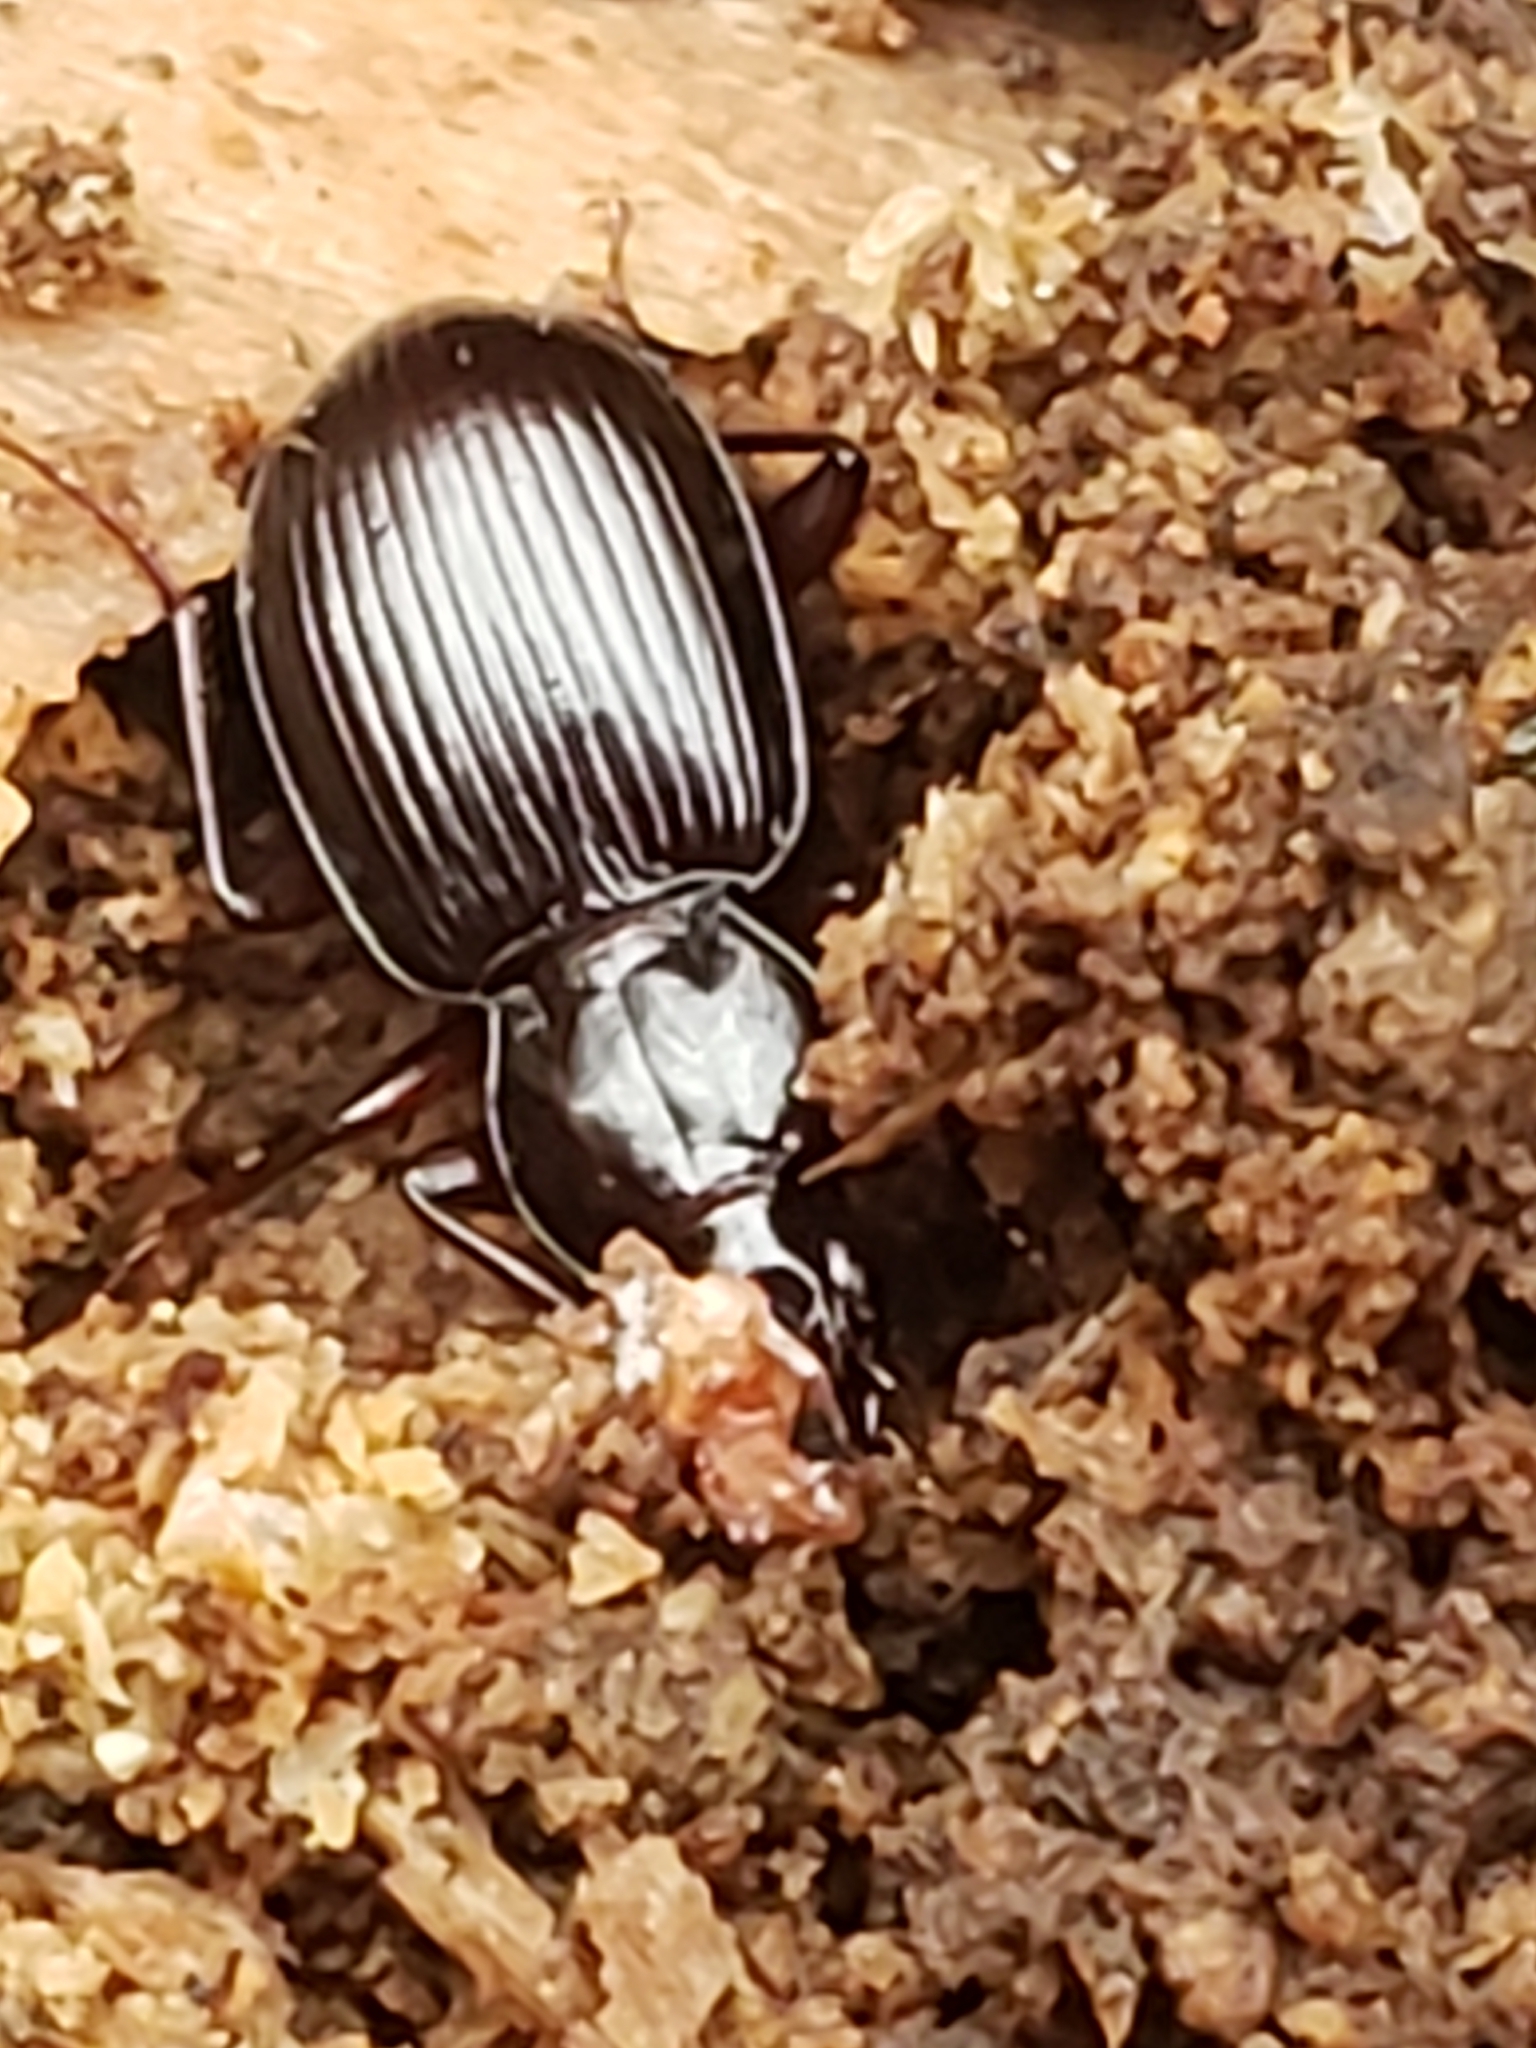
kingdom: Animalia
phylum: Arthropoda
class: Insecta
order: Coleoptera
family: Carabidae
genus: Gastrellarius
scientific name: Gastrellarius honestus
